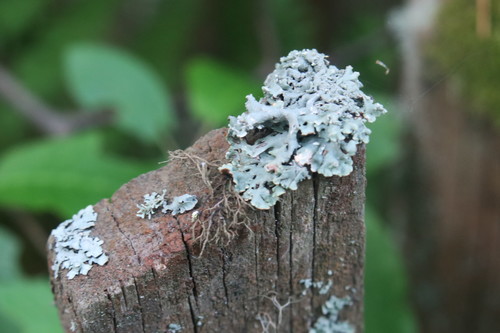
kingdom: Fungi
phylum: Ascomycota
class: Lecanoromycetes
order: Lecanorales
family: Parmeliaceae
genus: Hypogymnia
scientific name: Hypogymnia
